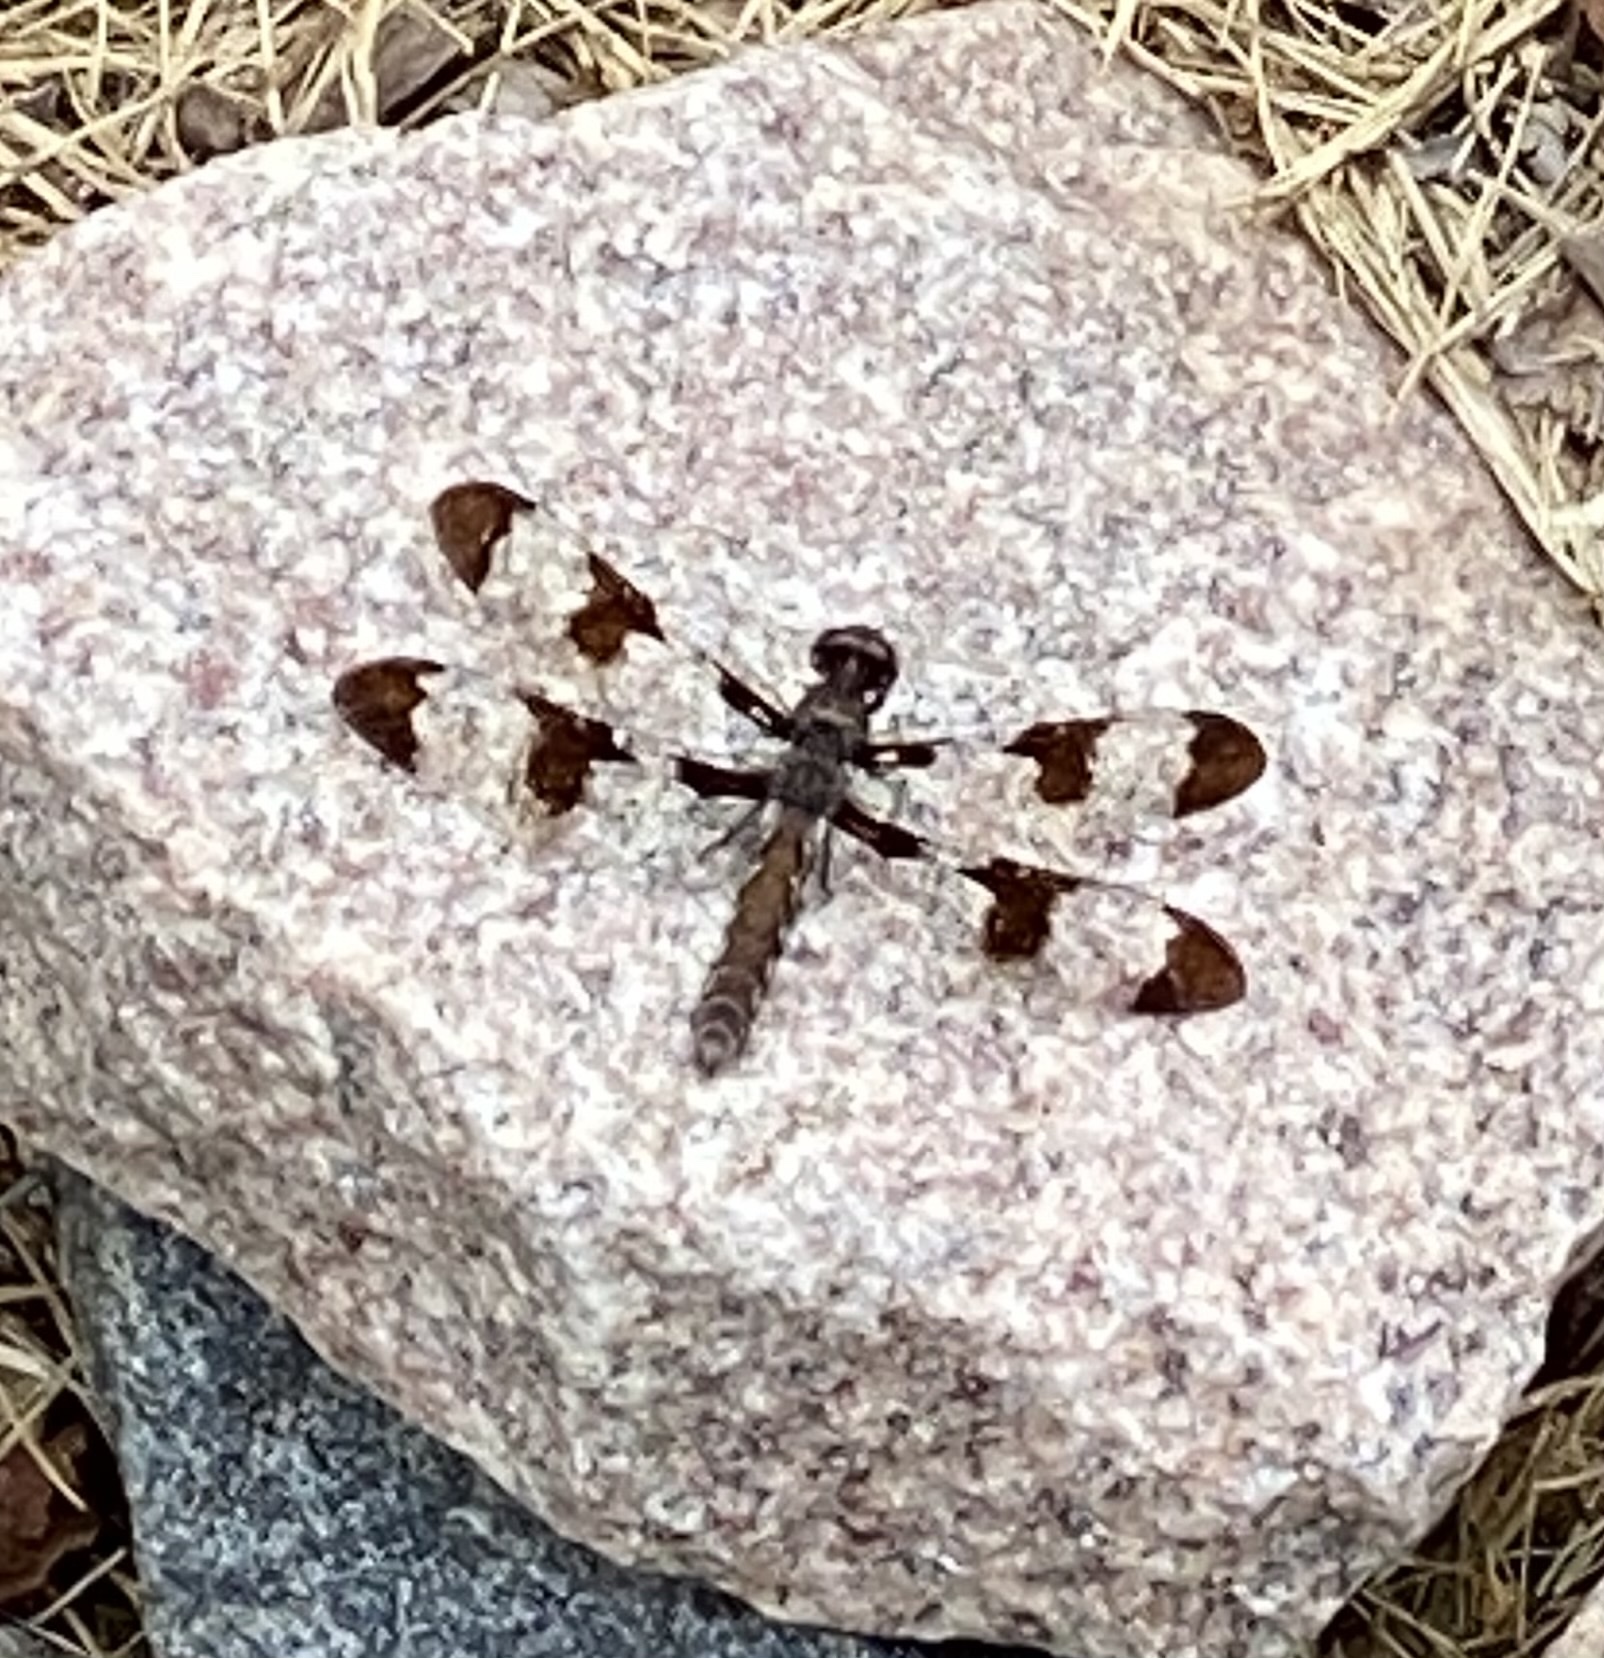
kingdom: Animalia
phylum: Arthropoda
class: Insecta
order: Odonata
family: Libellulidae
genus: Plathemis
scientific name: Plathemis lydia
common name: Common whitetail
